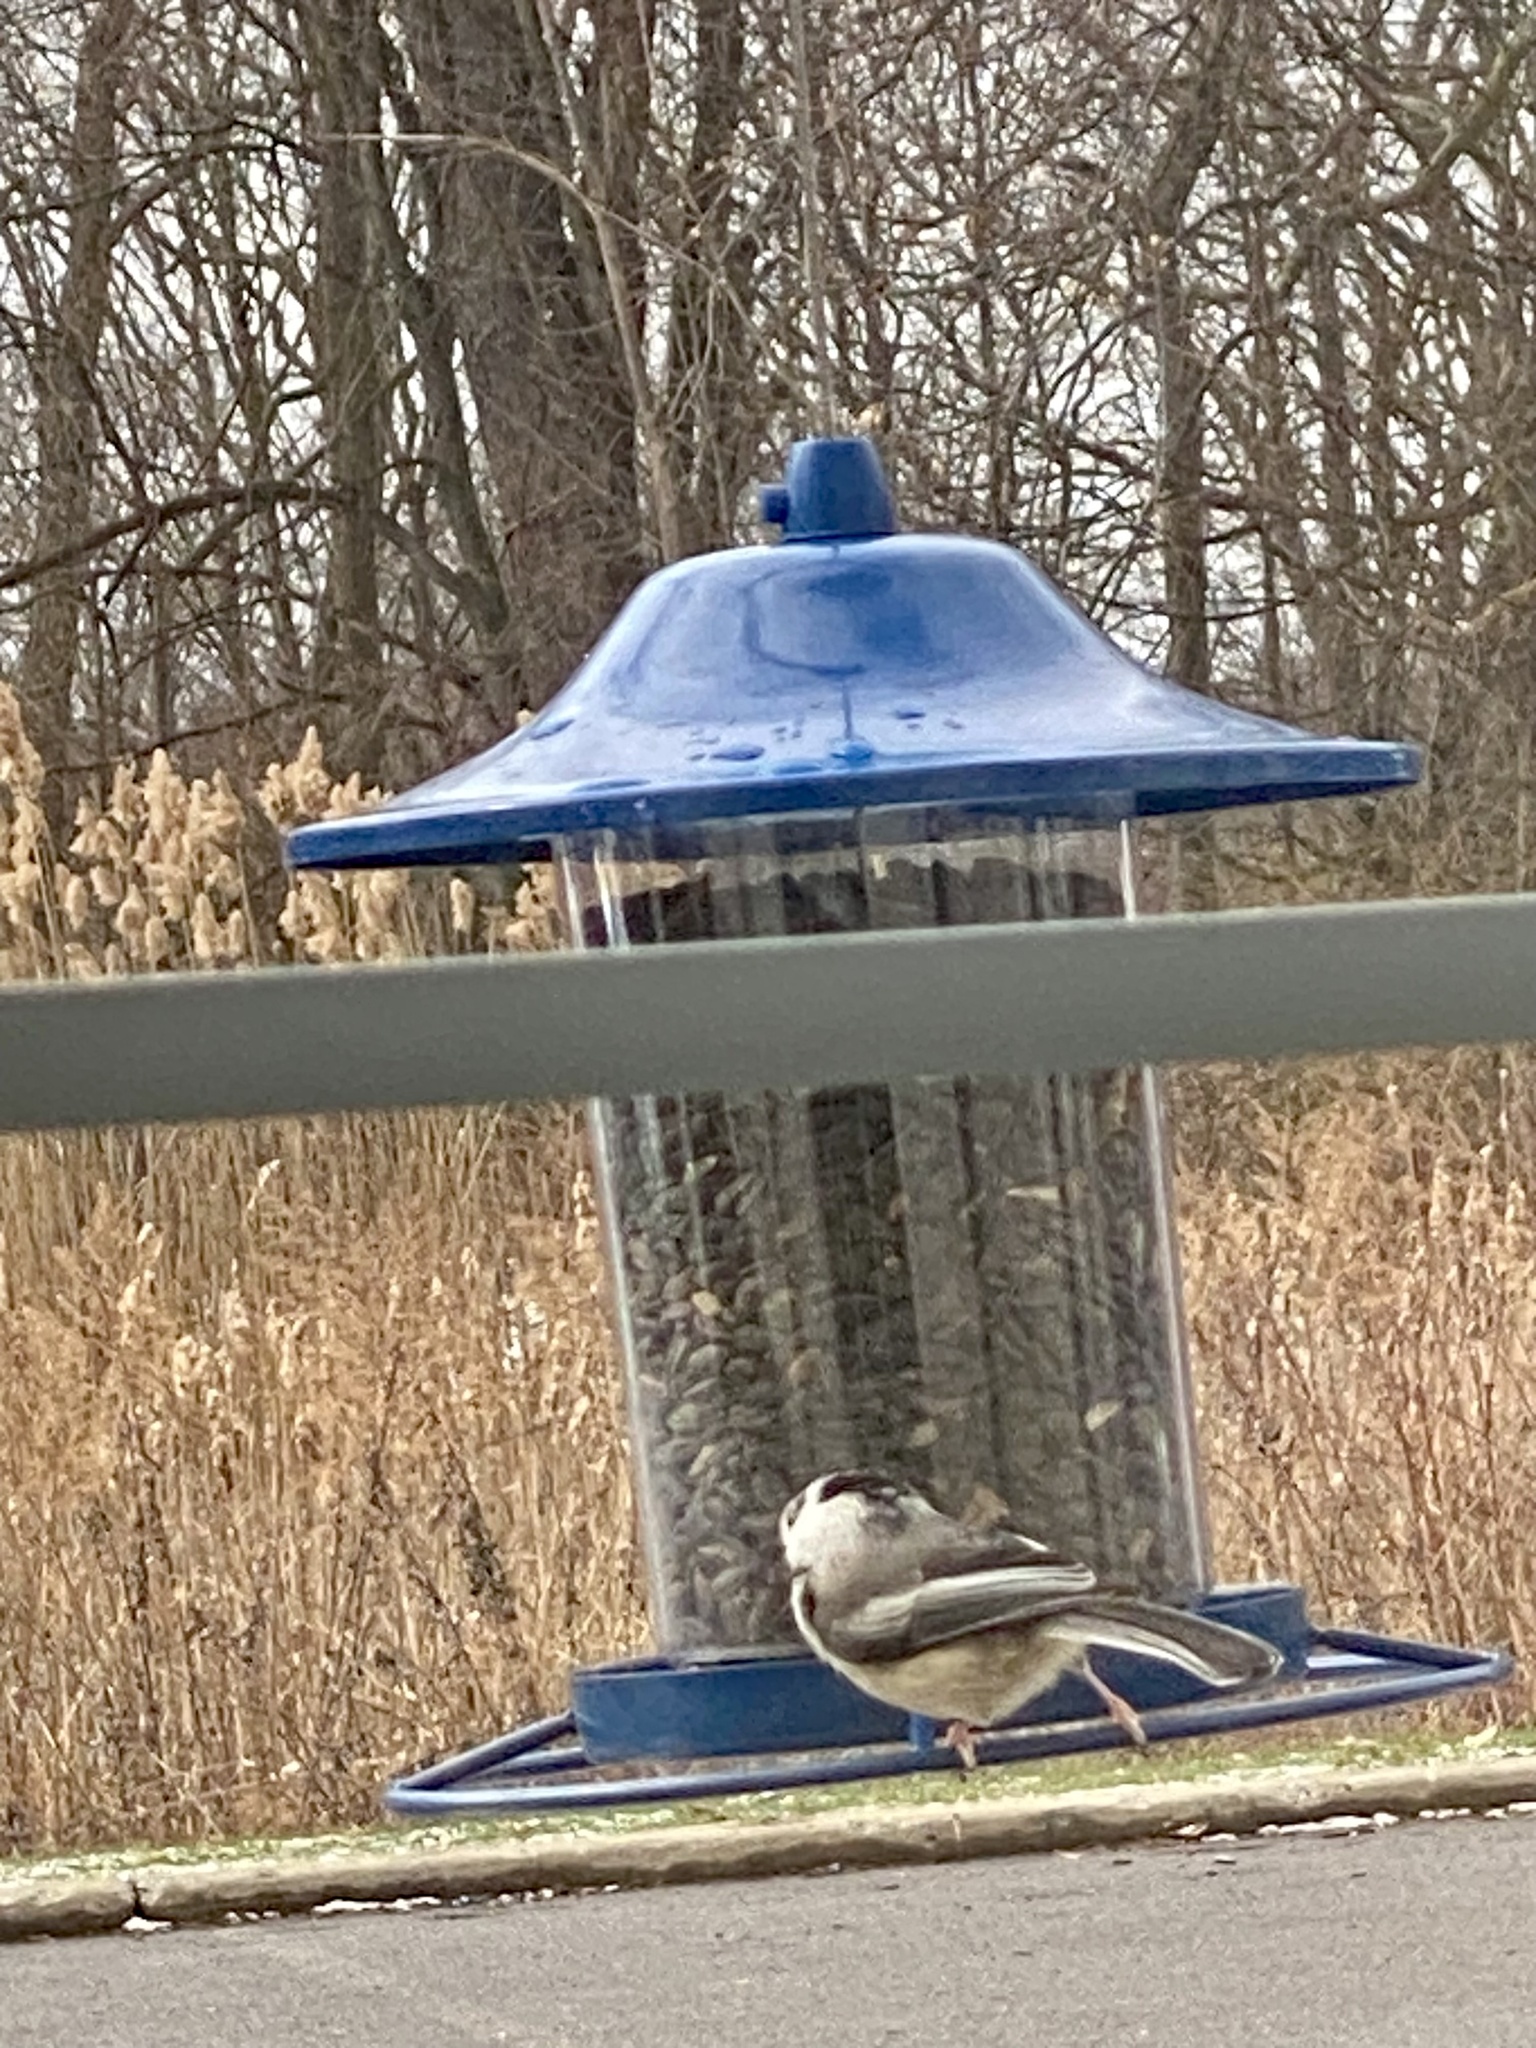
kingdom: Animalia
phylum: Chordata
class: Aves
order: Passeriformes
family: Paridae
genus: Poecile
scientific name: Poecile atricapillus
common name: Black-capped chickadee
